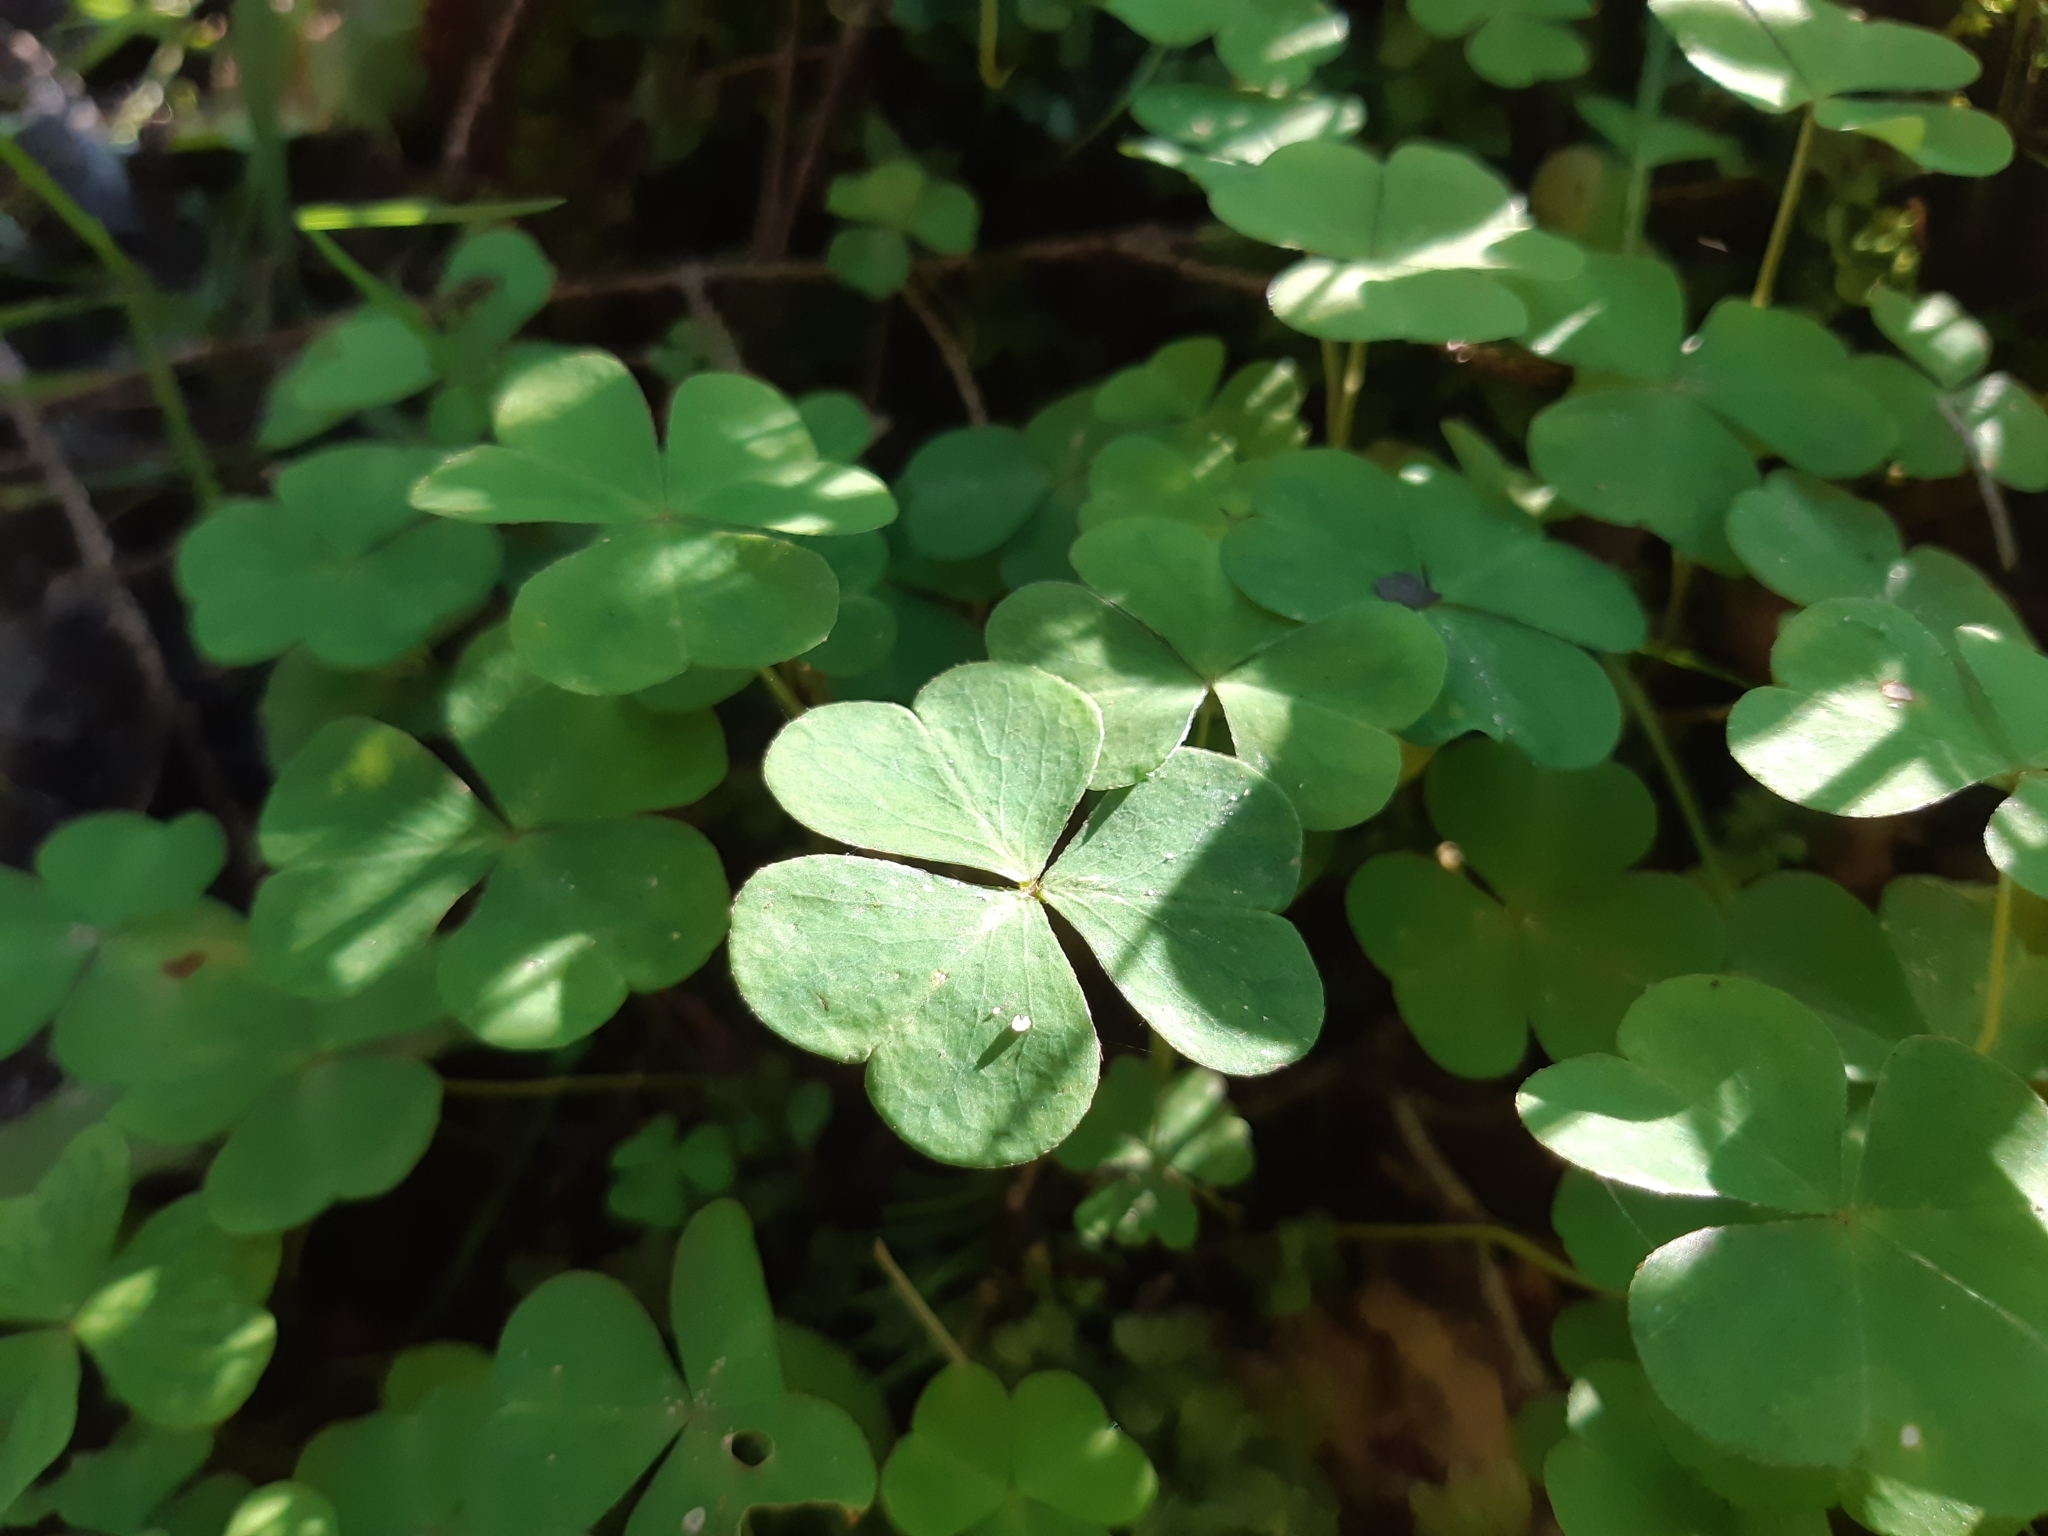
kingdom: Plantae
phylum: Tracheophyta
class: Magnoliopsida
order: Oxalidales
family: Oxalidaceae
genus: Oxalis
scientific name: Oxalis acetosella
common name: Wood-sorrel
